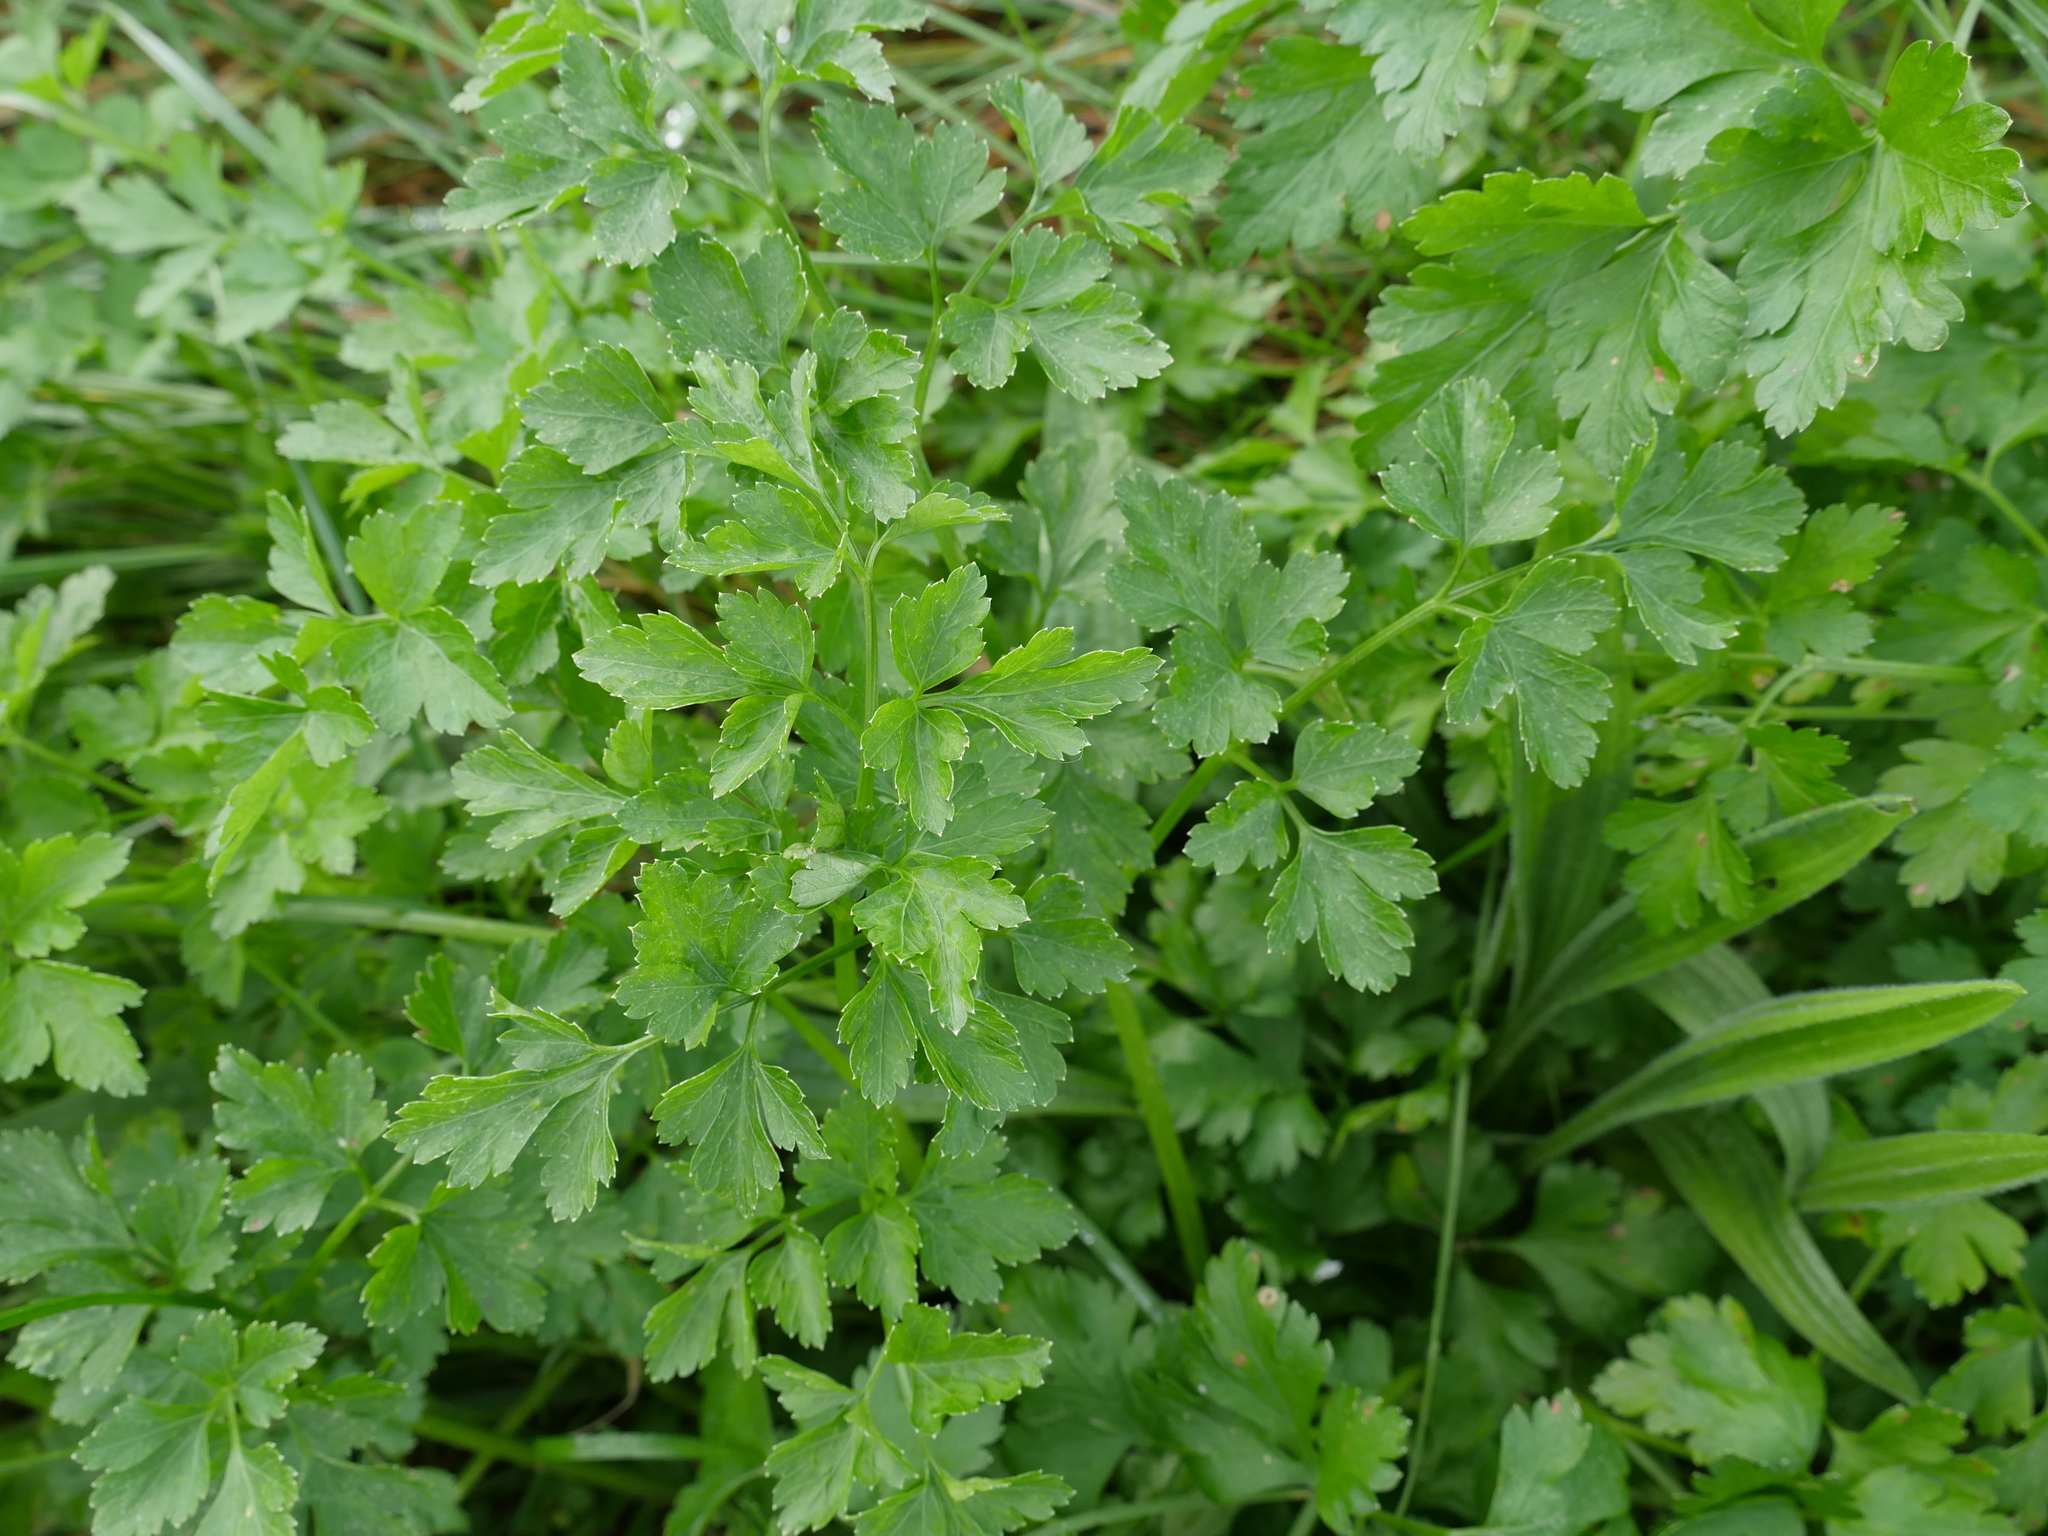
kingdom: Plantae
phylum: Tracheophyta
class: Magnoliopsida
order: Apiales
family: Apiaceae
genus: Petroselinum
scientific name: Petroselinum crispum
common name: Parsley
